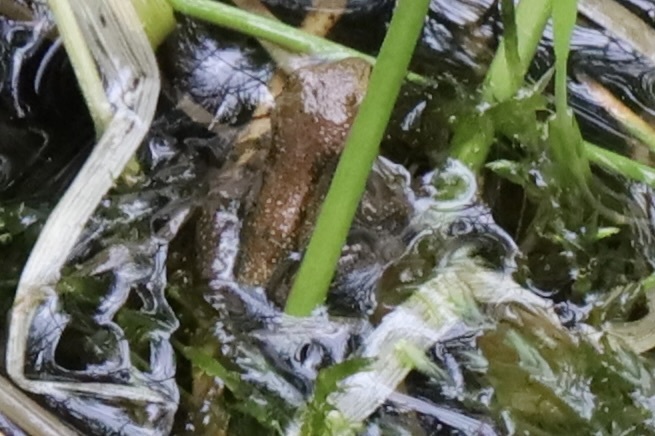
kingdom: Animalia
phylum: Chordata
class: Amphibia
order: Anura
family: Hylidae
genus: Pseudacris
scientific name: Pseudacris regilla
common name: Pacific chorus frog
